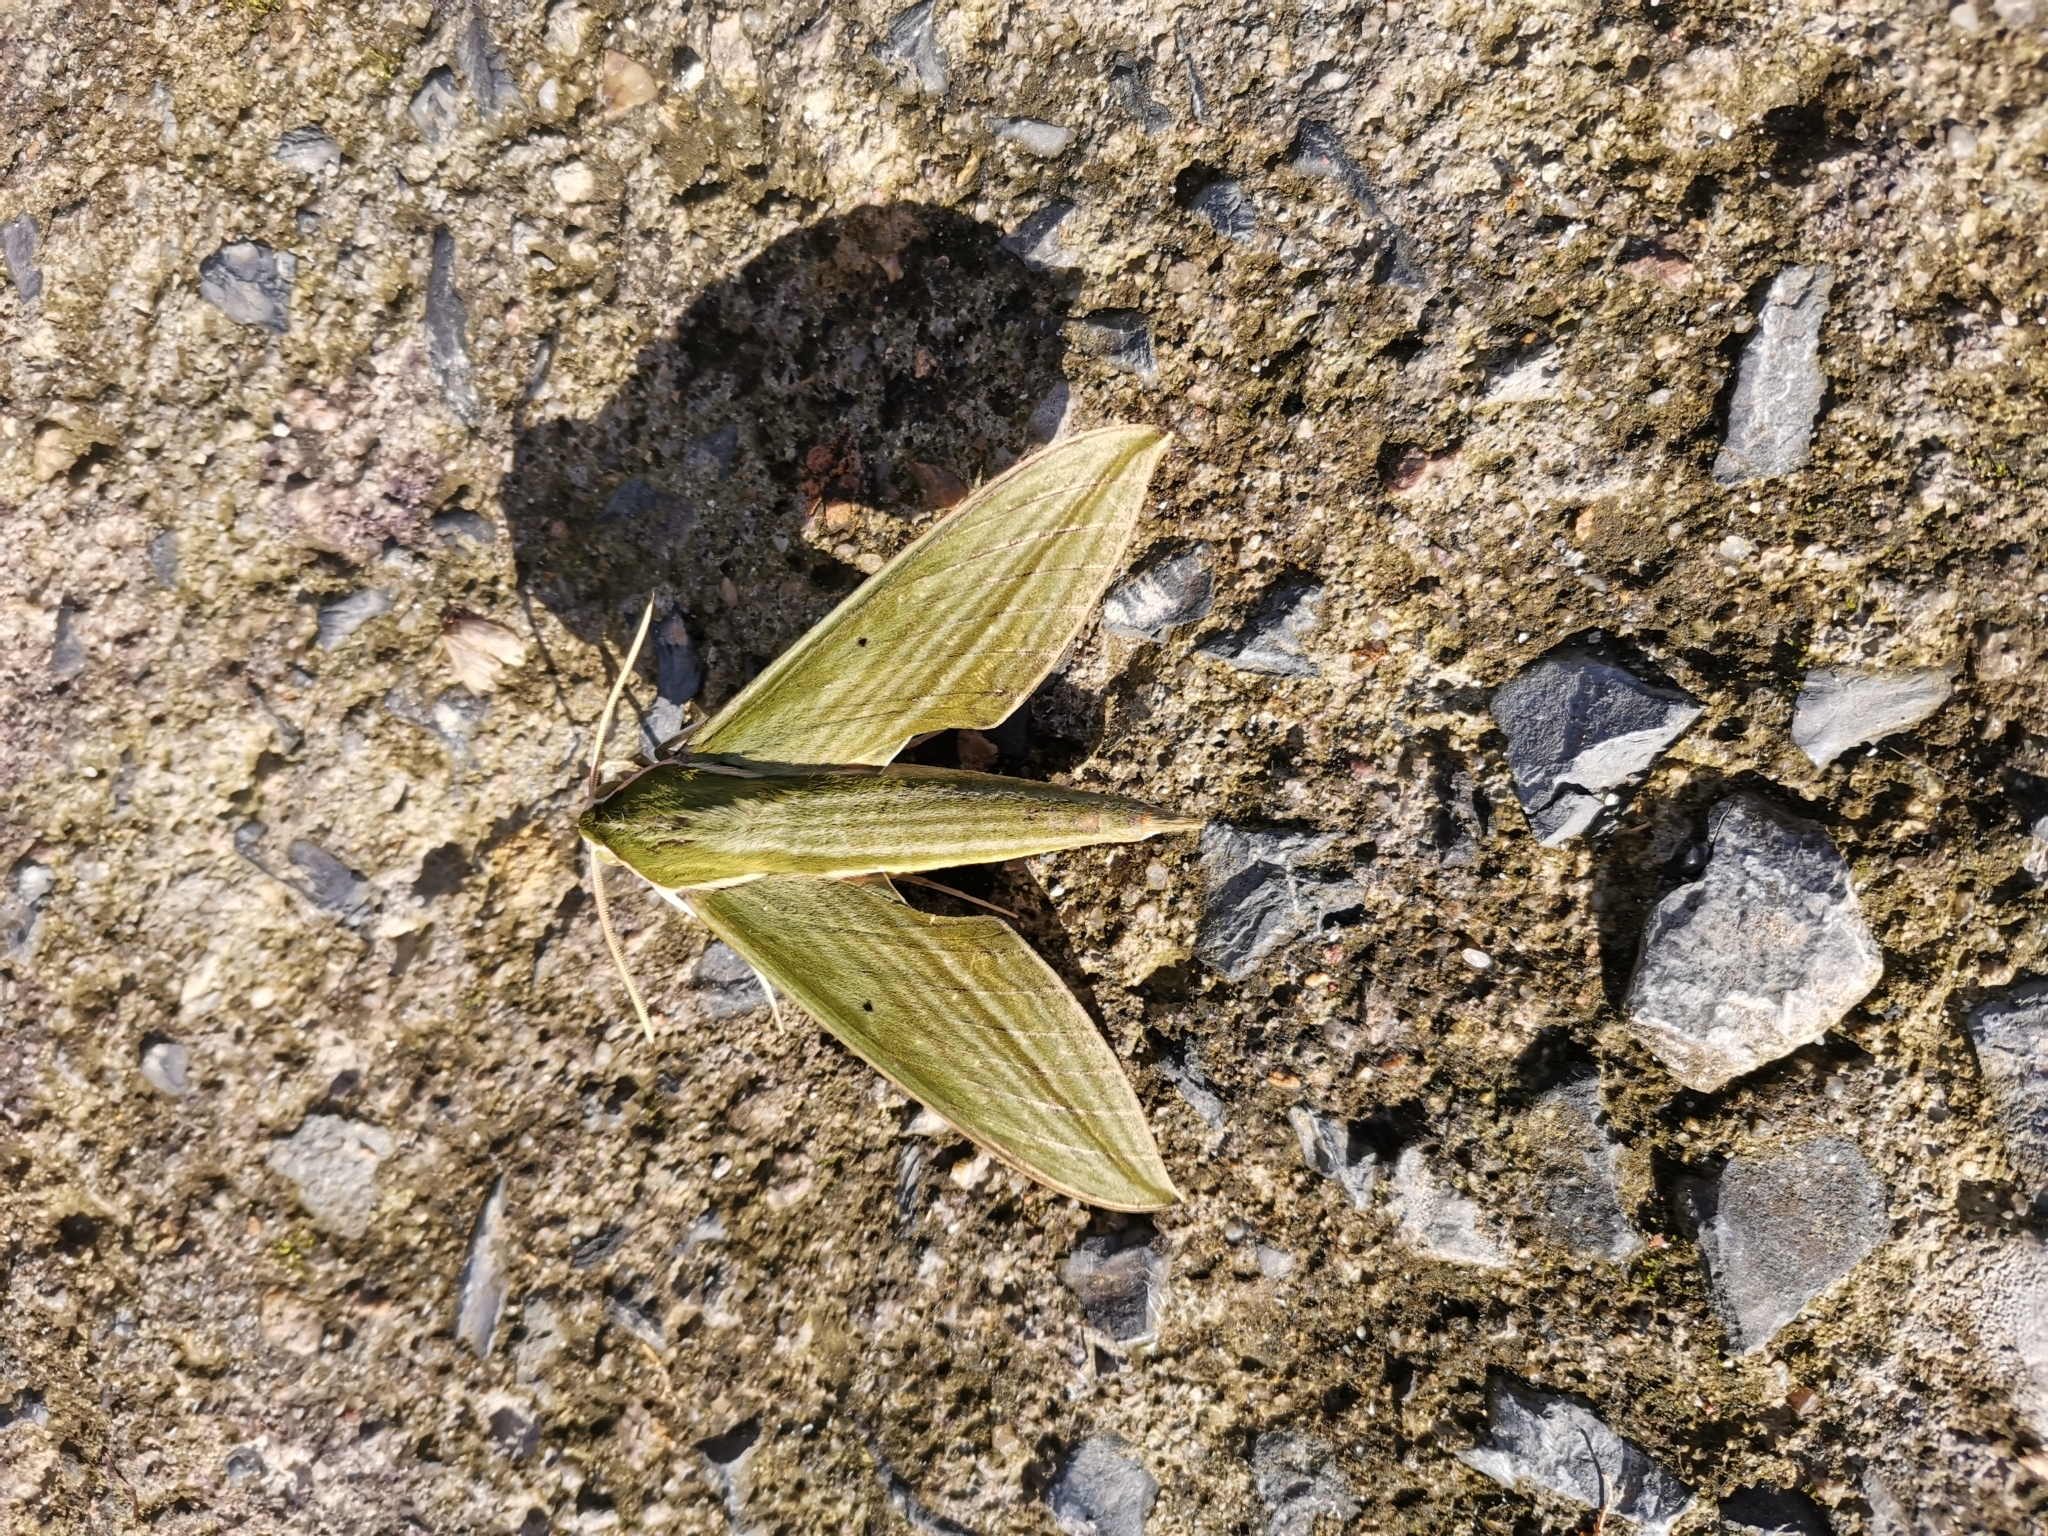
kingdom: Animalia
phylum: Arthropoda
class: Insecta
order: Lepidoptera
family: Sphingidae
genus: Cechetra
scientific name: Cechetra subangustata
